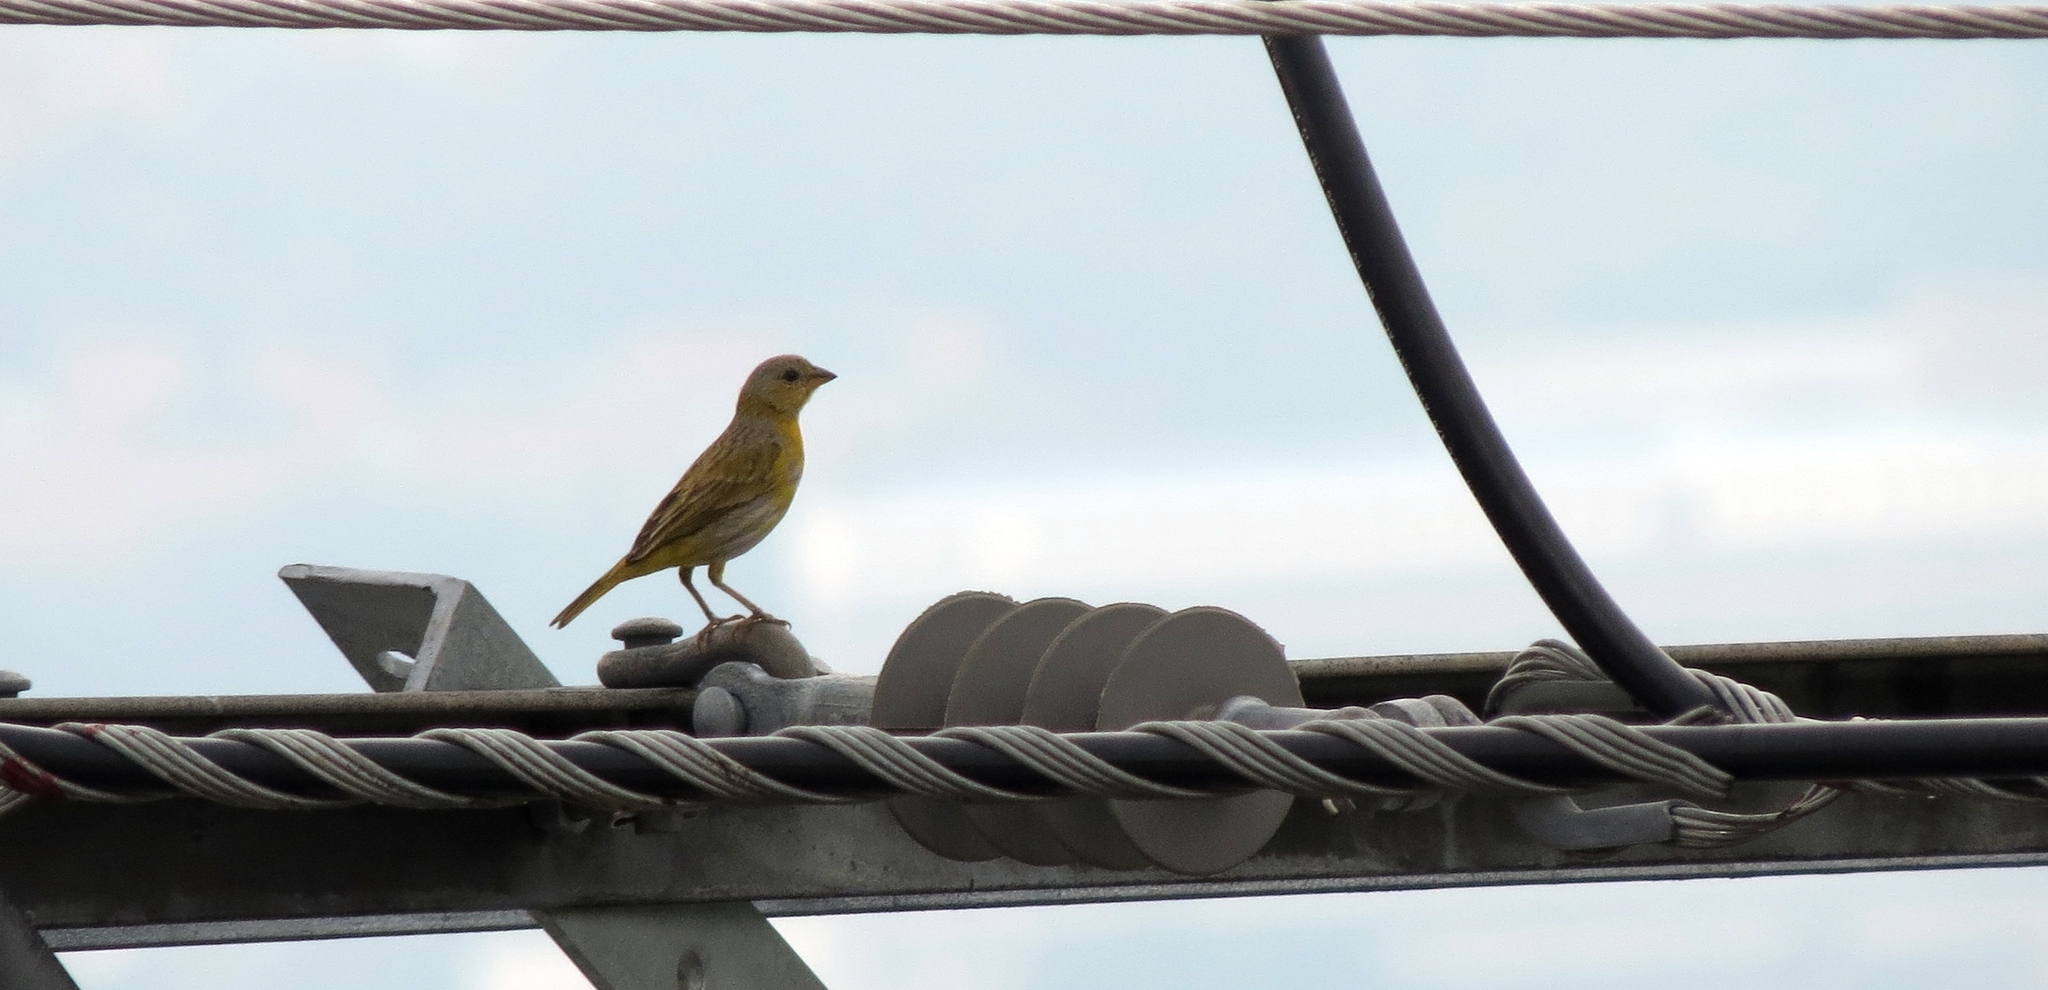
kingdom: Animalia
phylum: Chordata
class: Aves
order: Passeriformes
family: Thraupidae
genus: Sicalis
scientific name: Sicalis flaveola
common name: Saffron finch
